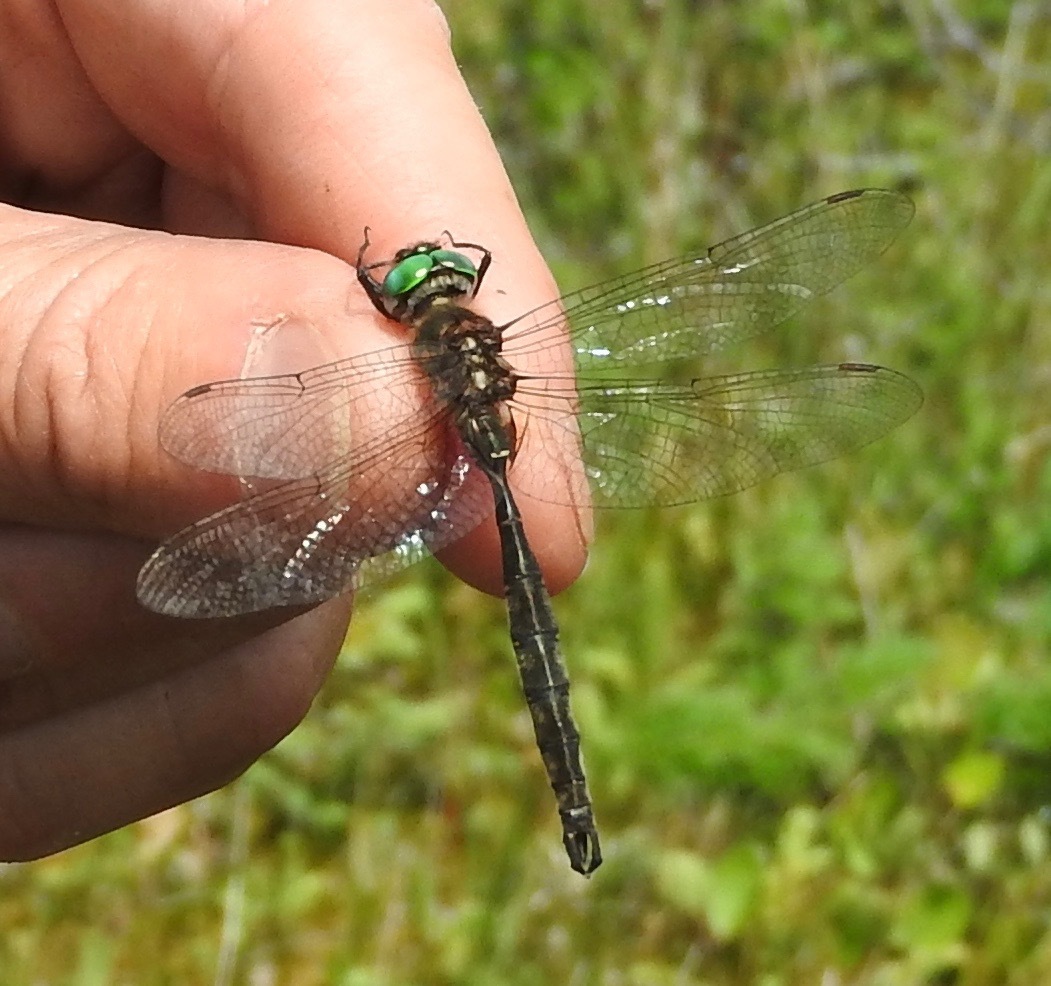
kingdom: Animalia
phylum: Arthropoda
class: Insecta
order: Odonata
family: Corduliidae
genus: Somatochlora
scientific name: Somatochlora brevicincta
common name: Quebec emerald
